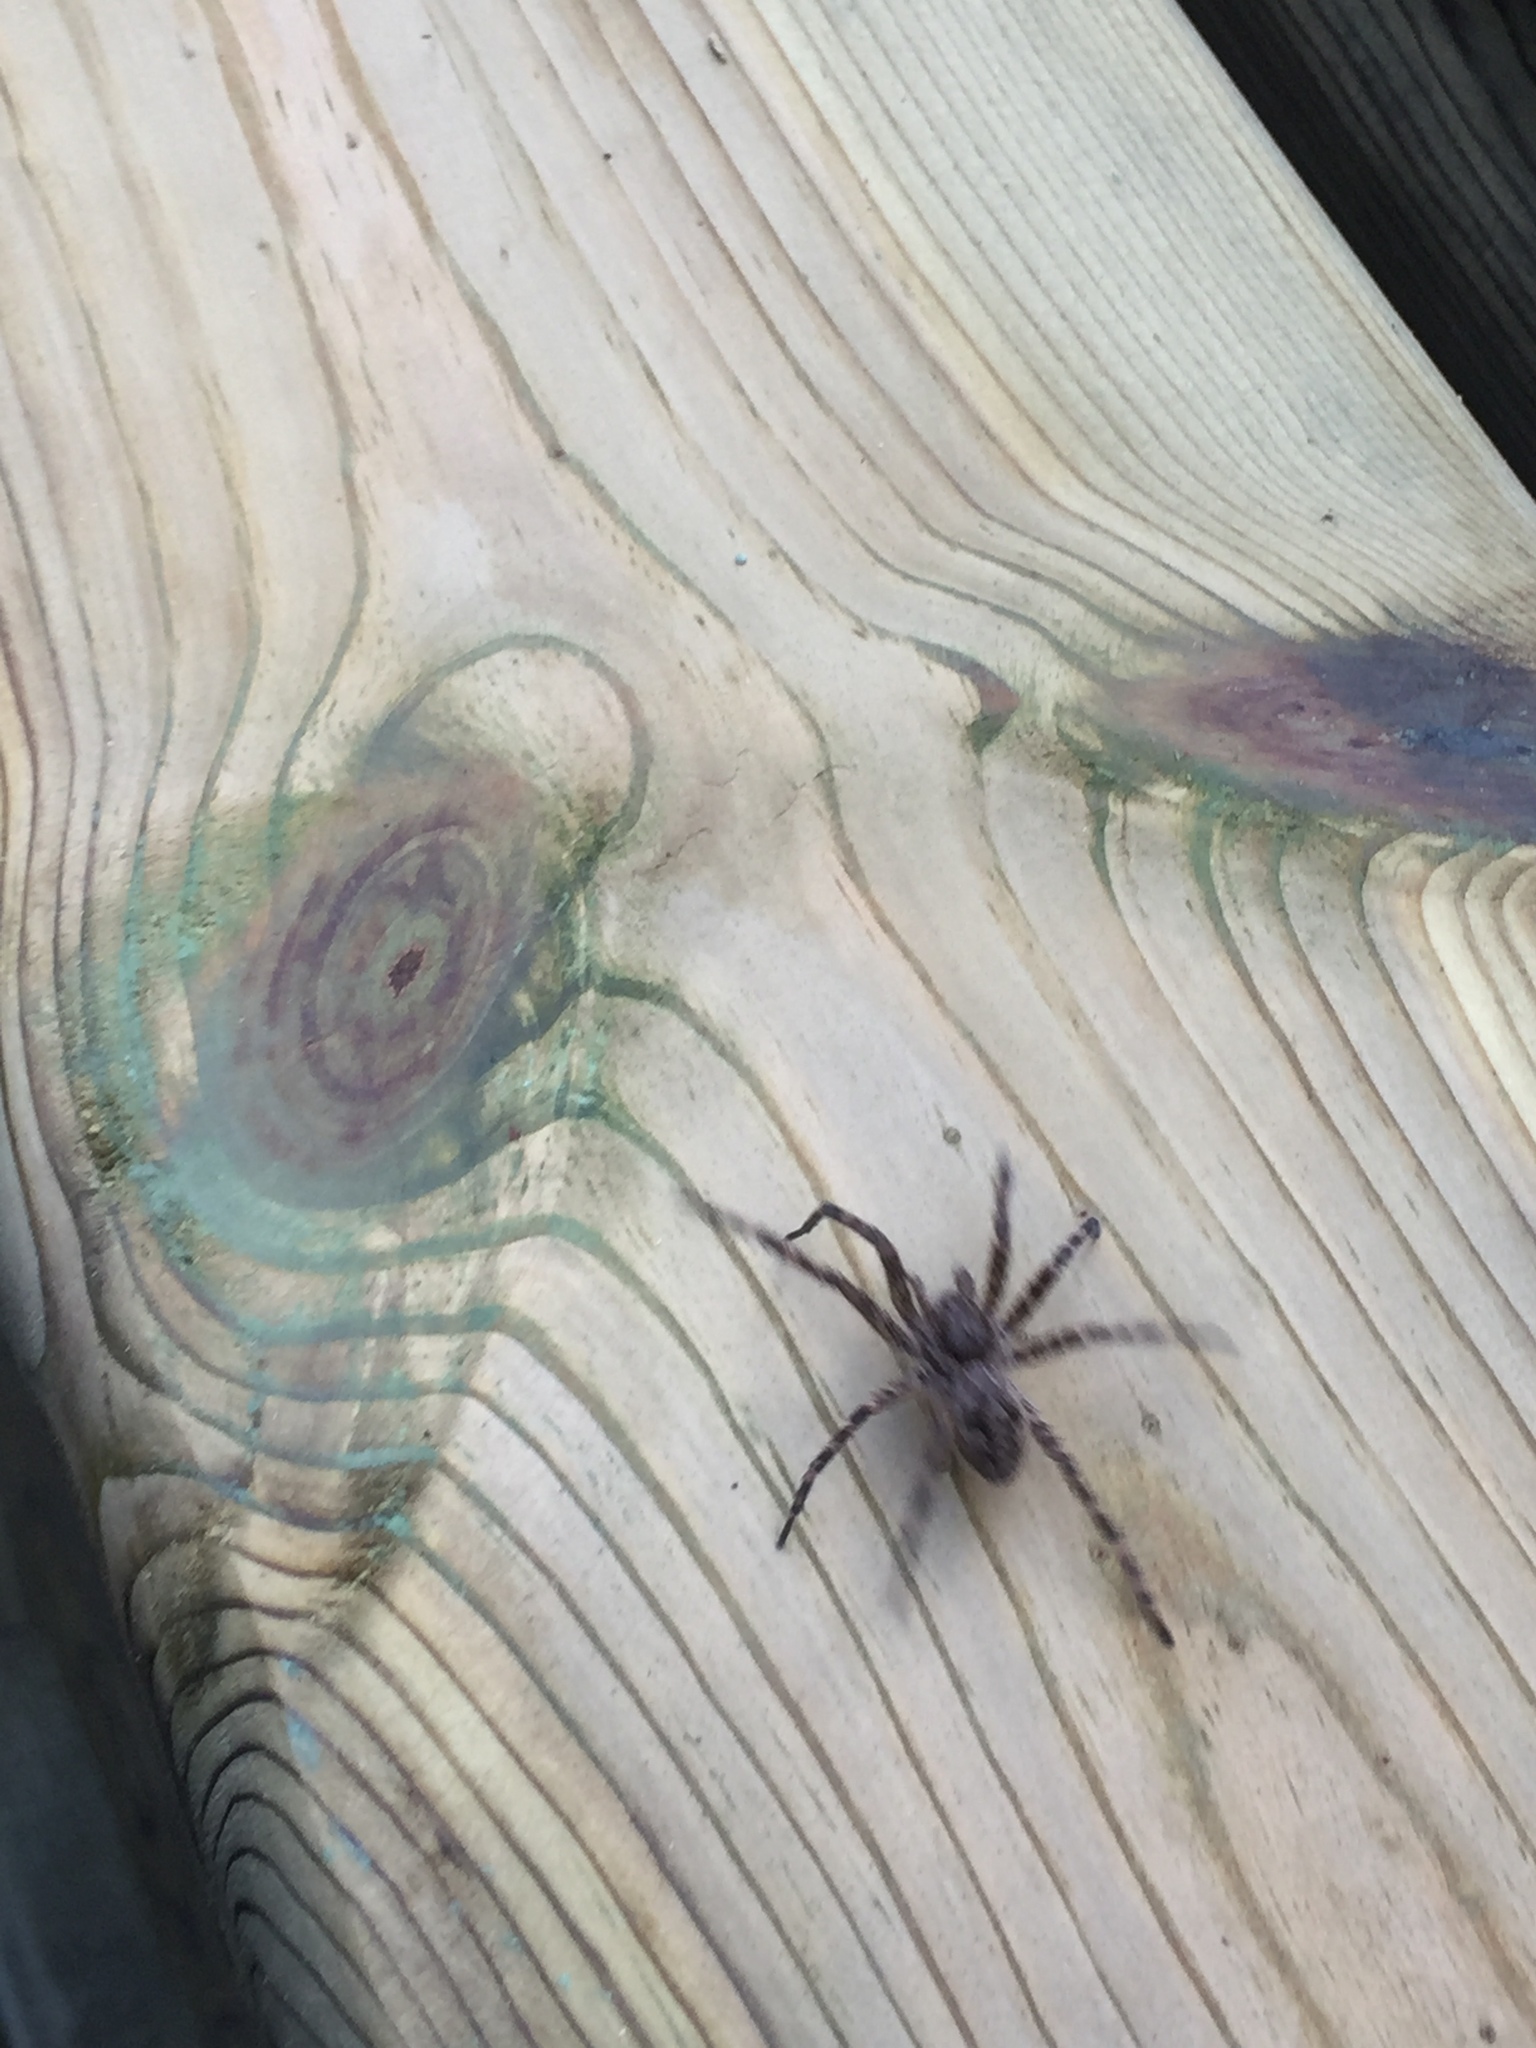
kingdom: Animalia
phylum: Arthropoda
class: Arachnida
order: Araneae
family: Pisauridae
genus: Dolomedes
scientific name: Dolomedes tenebrosus
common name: Dark fishing spider
